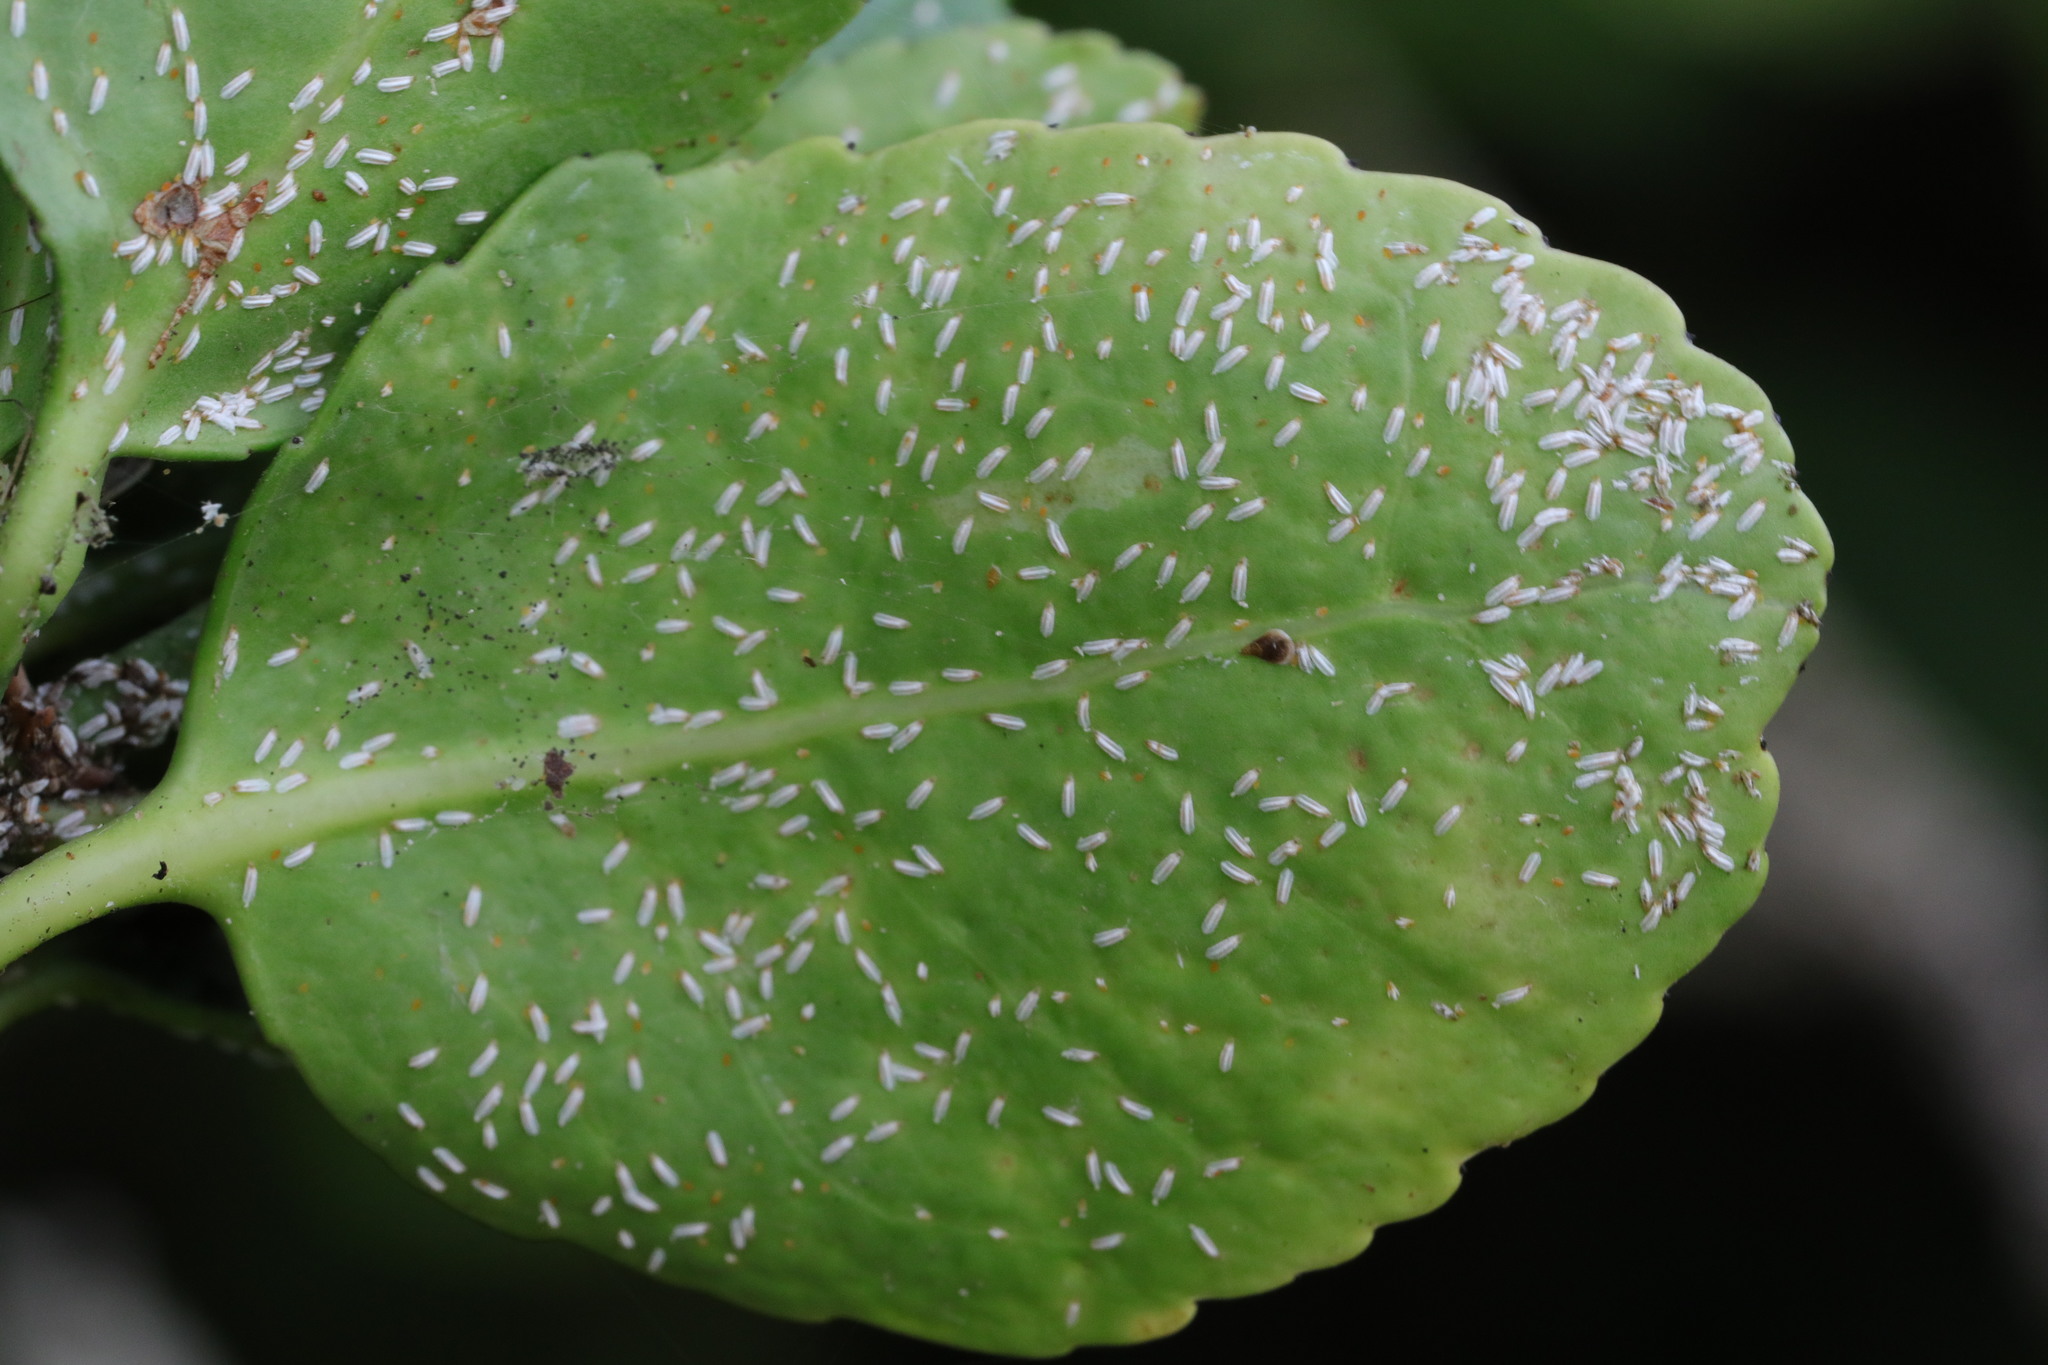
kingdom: Animalia
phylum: Arthropoda
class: Insecta
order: Hemiptera
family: Diaspididae
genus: Unaspis
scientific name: Unaspis euonymi
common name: Euonymus scale
